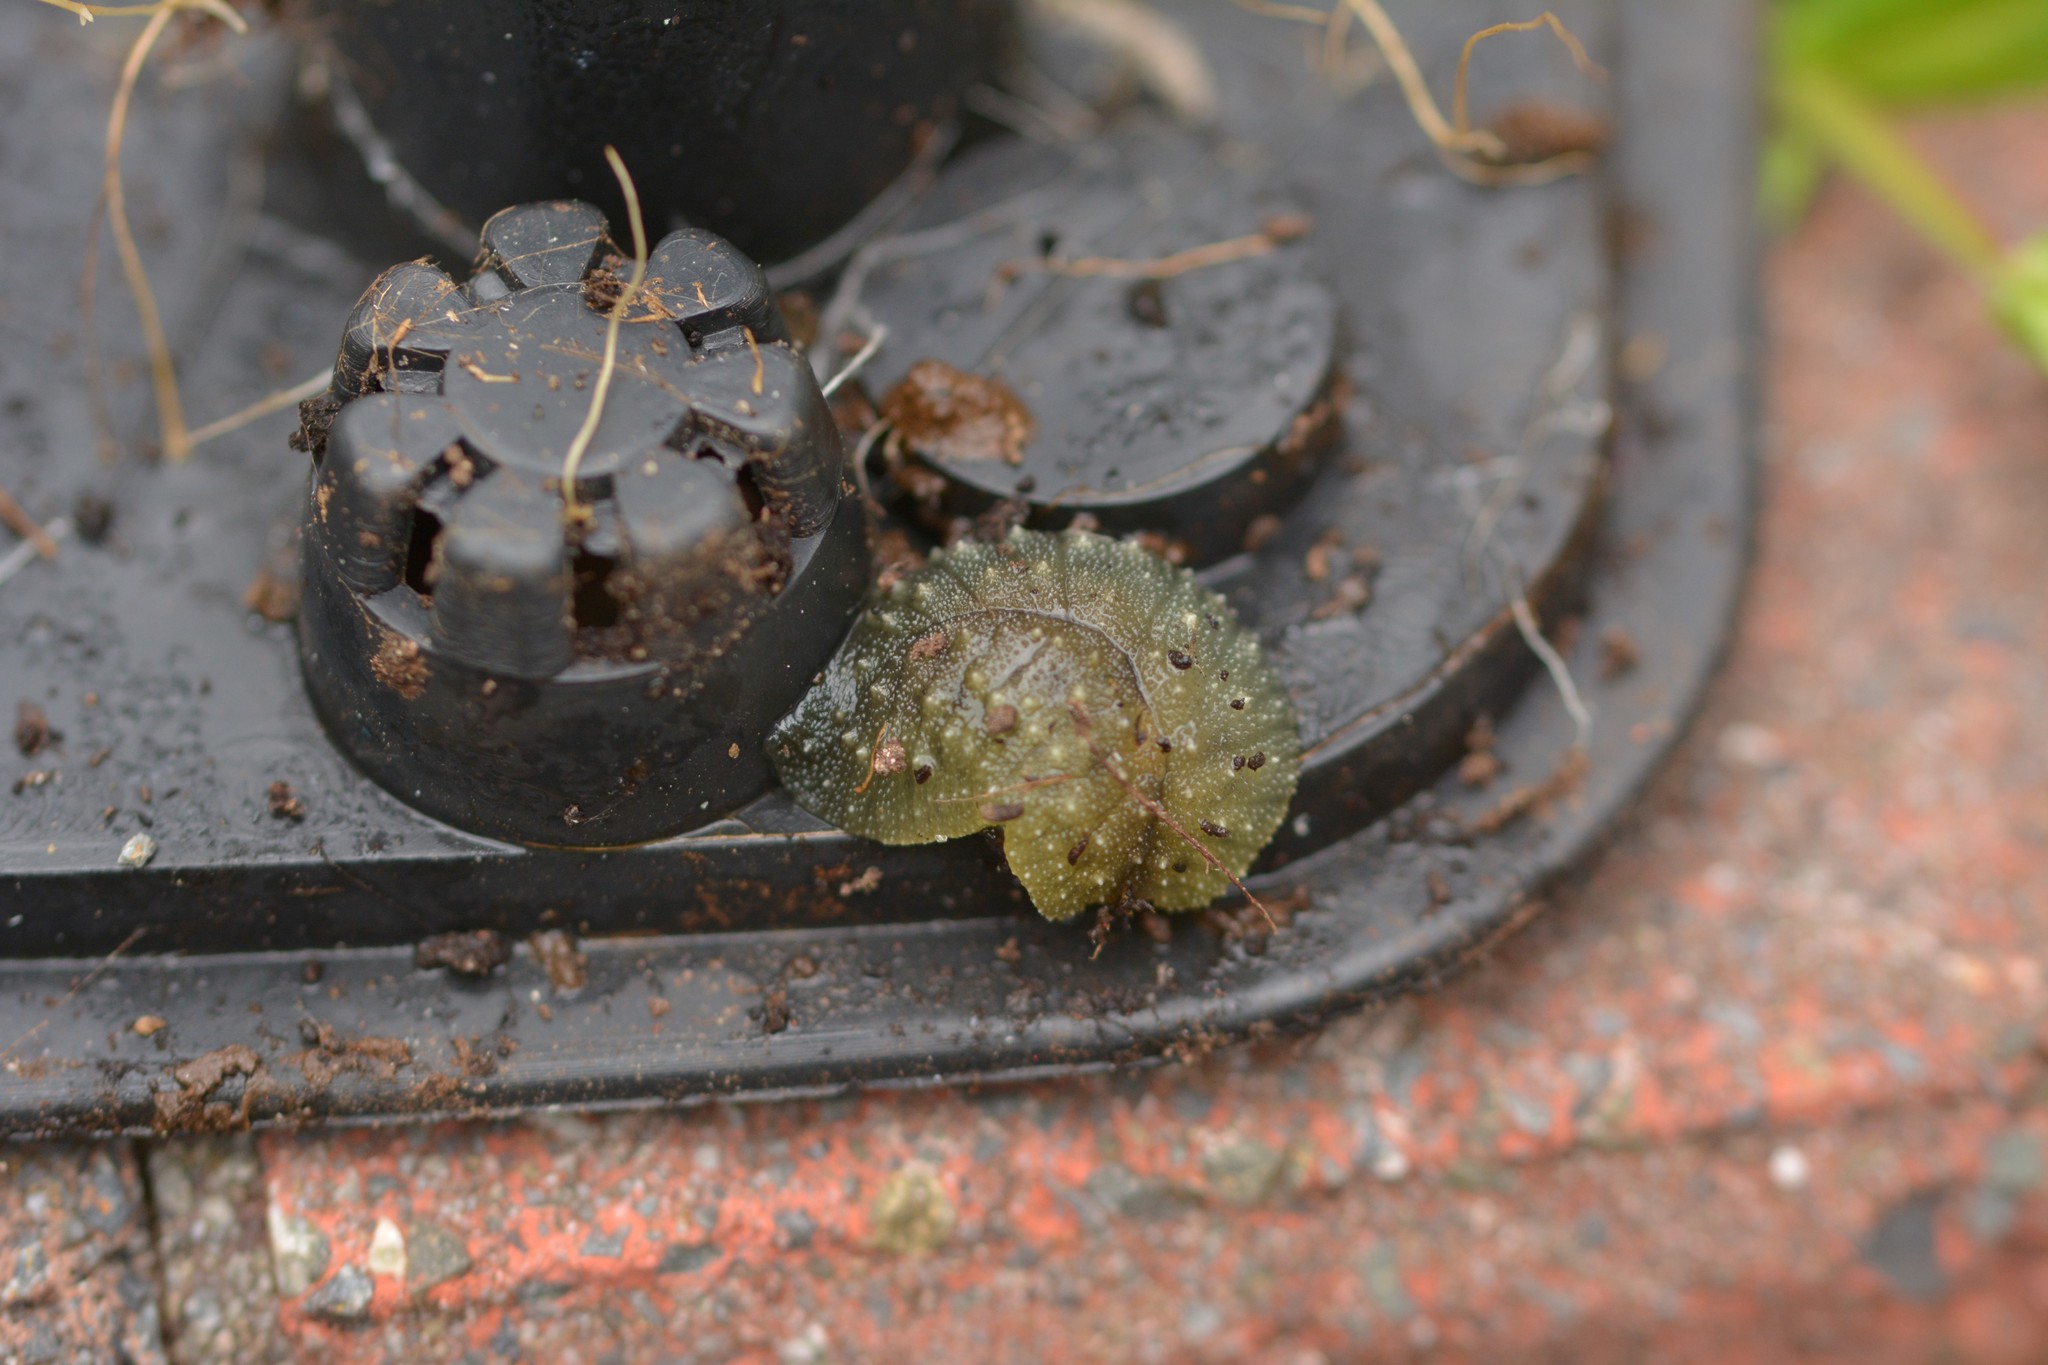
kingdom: Animalia
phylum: Mollusca
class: Gastropoda
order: Stylommatophora
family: Athoracophoridae
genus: Athoracophorus
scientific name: Athoracophorus papillatus
